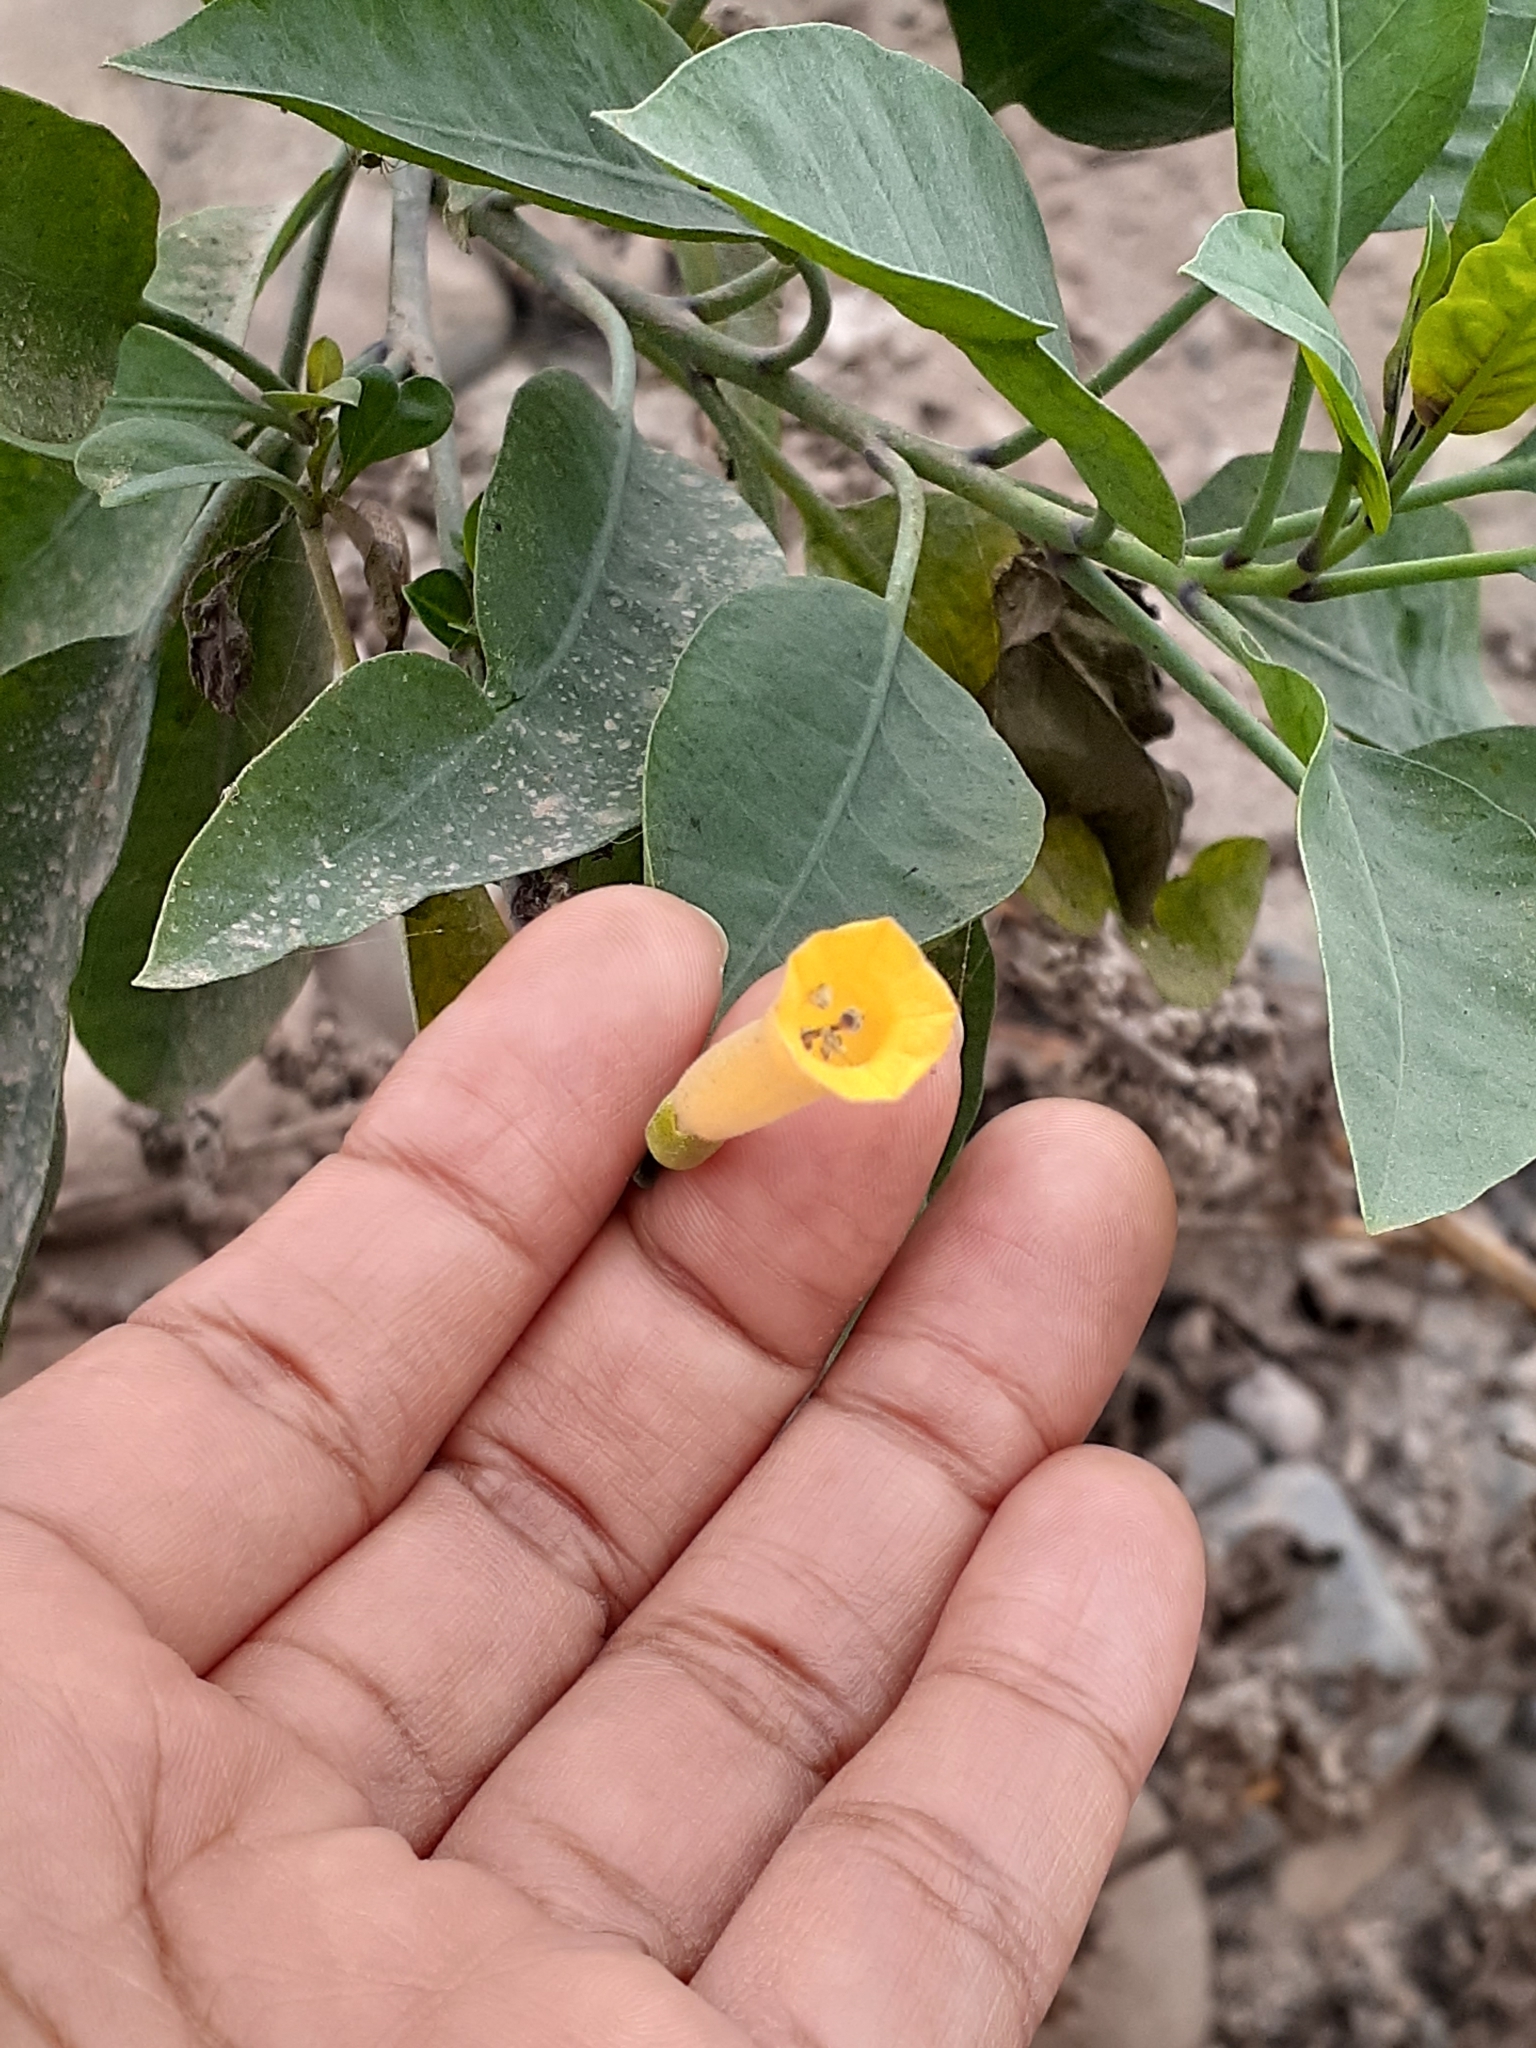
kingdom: Plantae
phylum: Tracheophyta
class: Magnoliopsida
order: Solanales
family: Solanaceae
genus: Nicotiana
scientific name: Nicotiana glauca
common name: Tree tobacco
